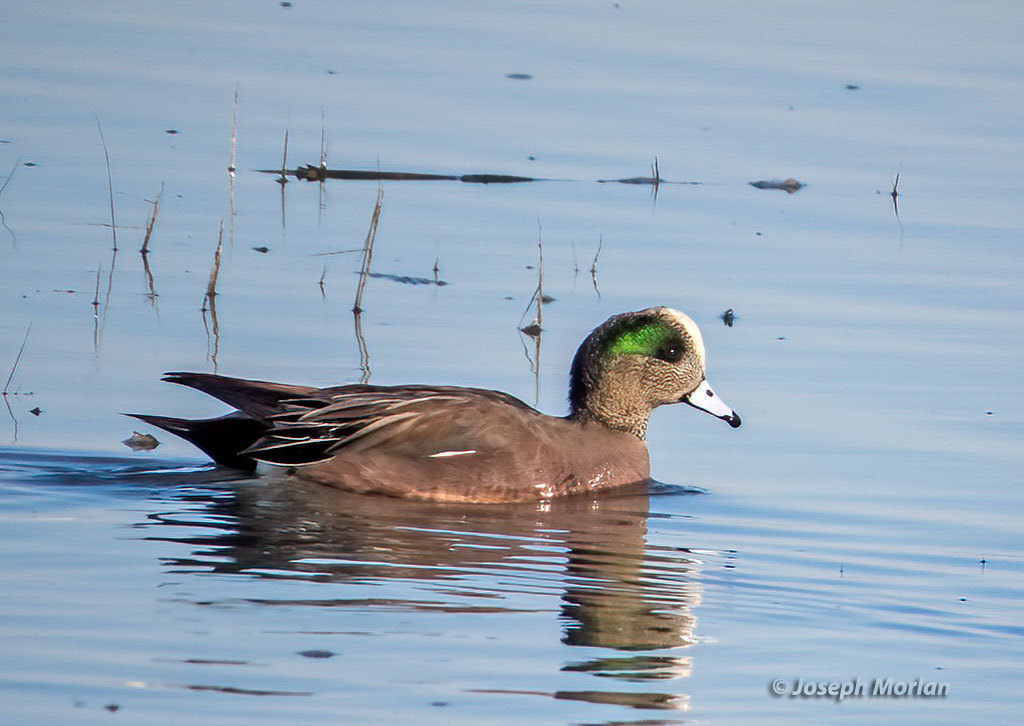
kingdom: Animalia
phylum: Chordata
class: Aves
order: Anseriformes
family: Anatidae
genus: Mareca
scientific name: Mareca americana
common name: American wigeon
